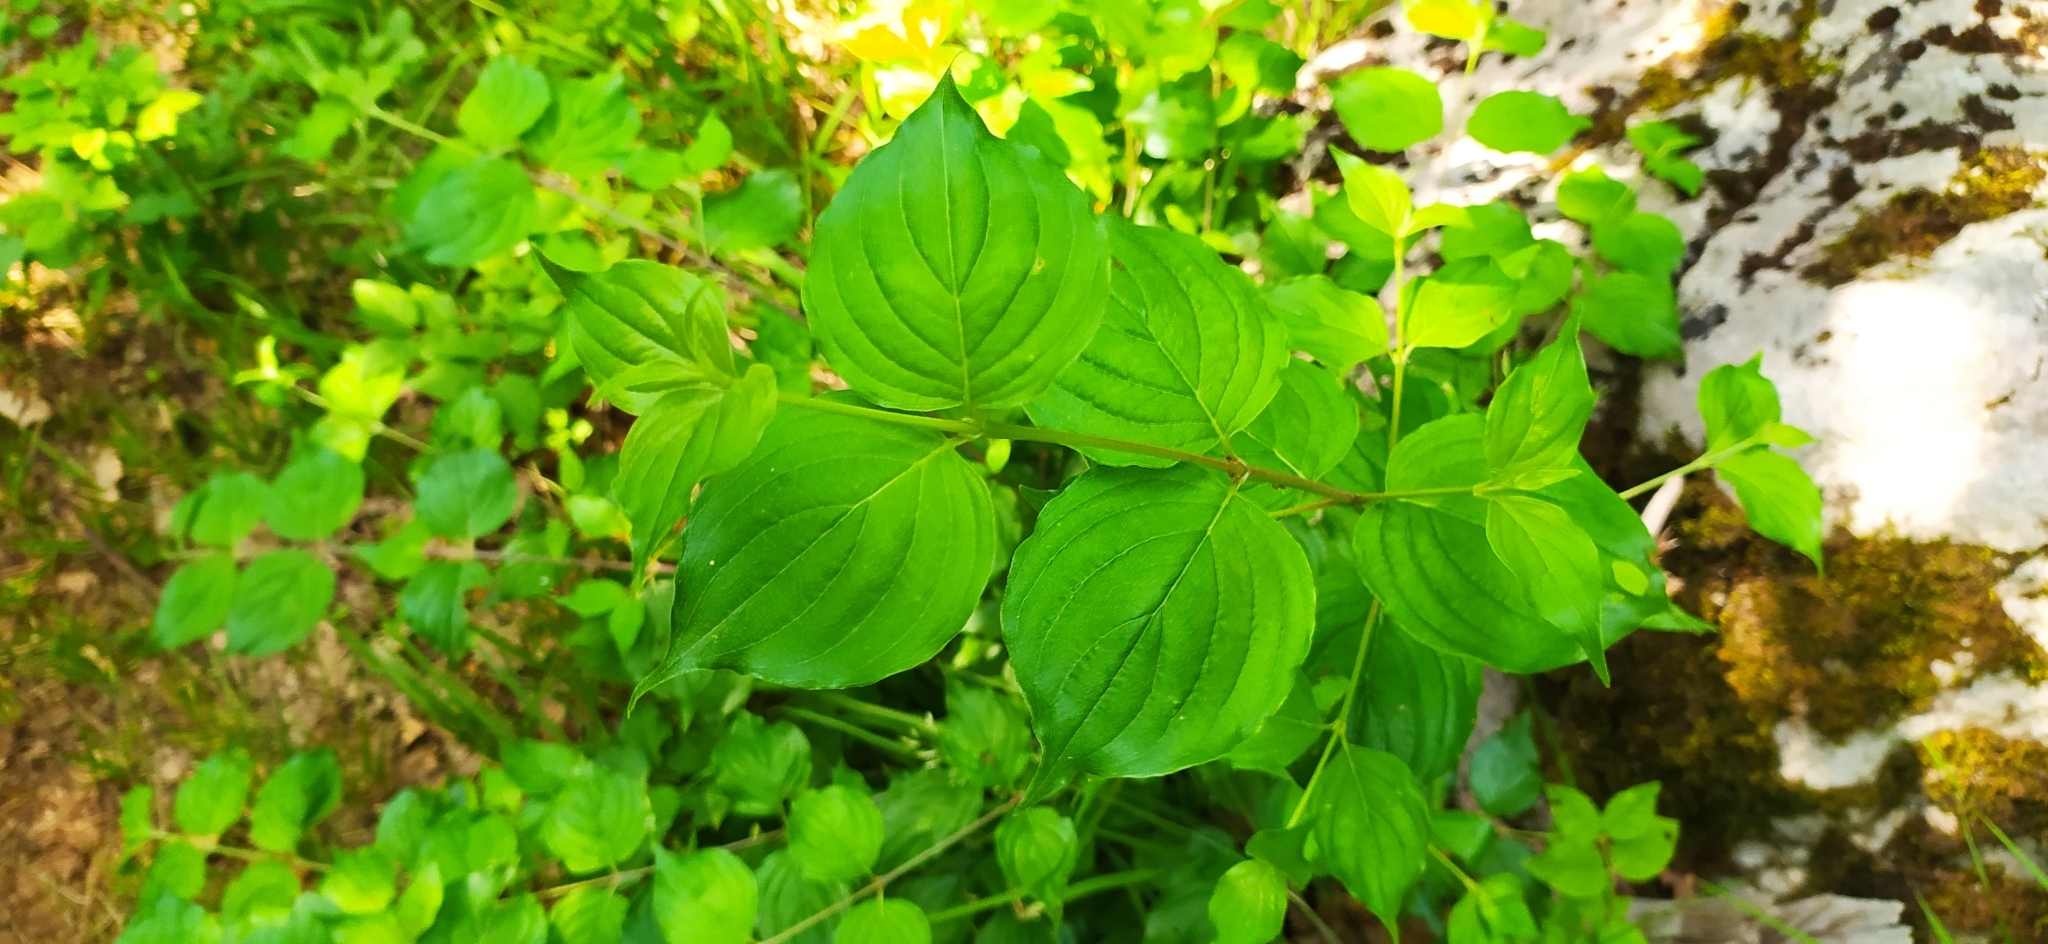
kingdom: Plantae
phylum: Tracheophyta
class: Magnoliopsida
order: Cornales
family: Cornaceae
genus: Cornus
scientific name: Cornus mas
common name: Cornelian-cherry
